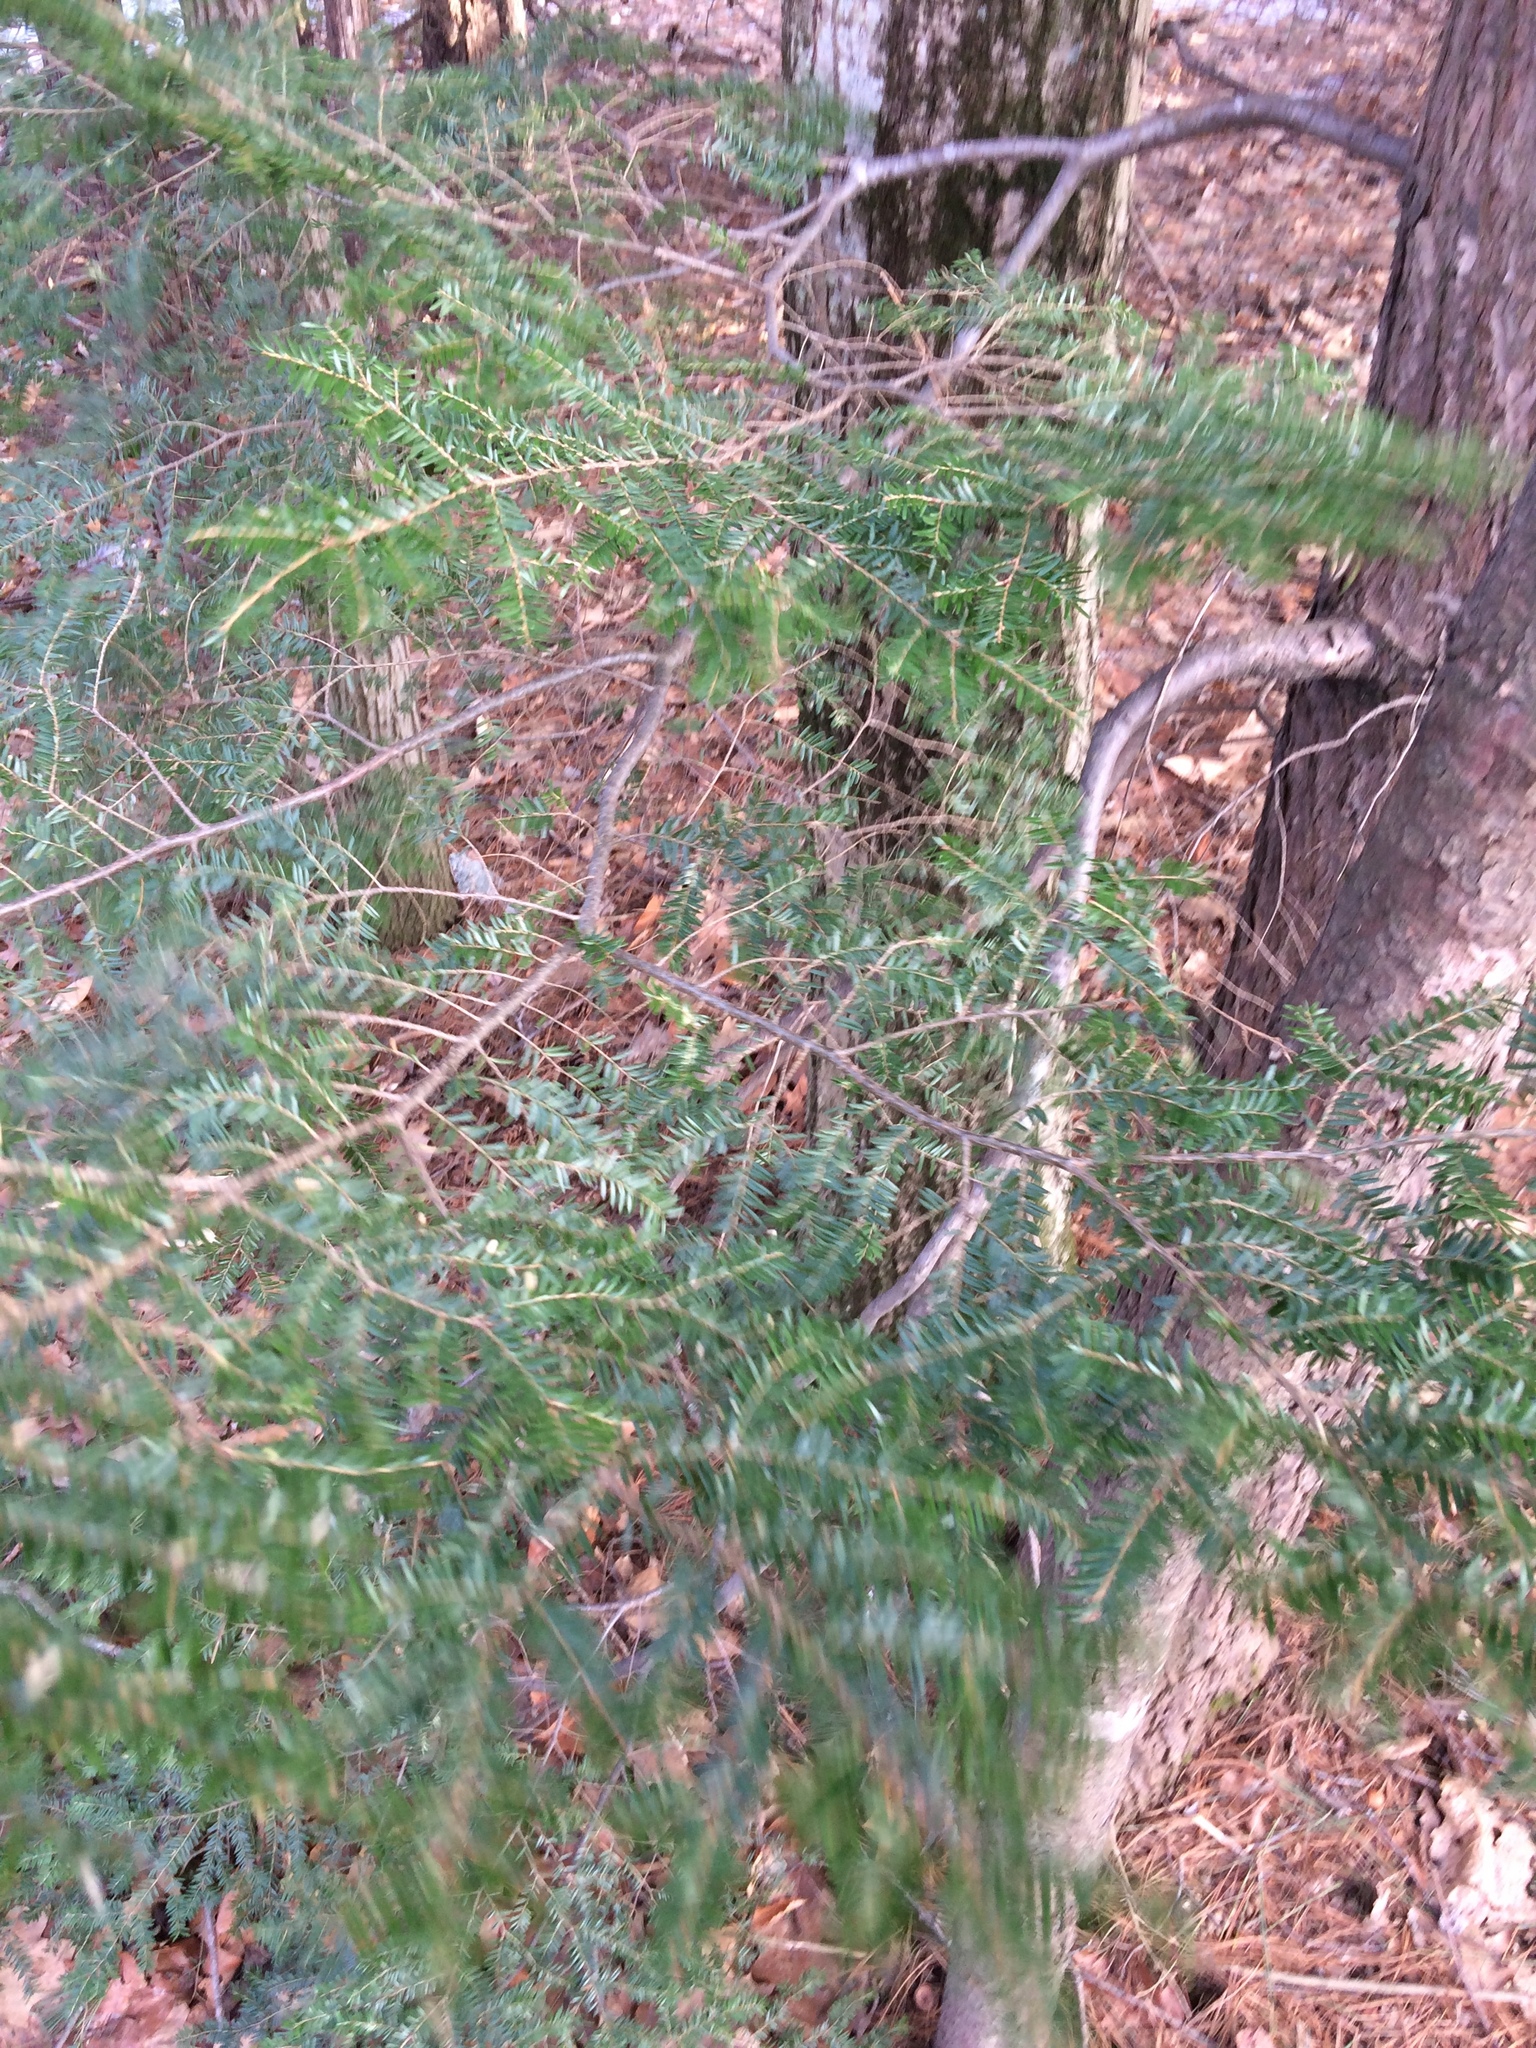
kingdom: Plantae
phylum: Tracheophyta
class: Pinopsida
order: Pinales
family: Pinaceae
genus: Tsuga
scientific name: Tsuga canadensis
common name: Eastern hemlock
